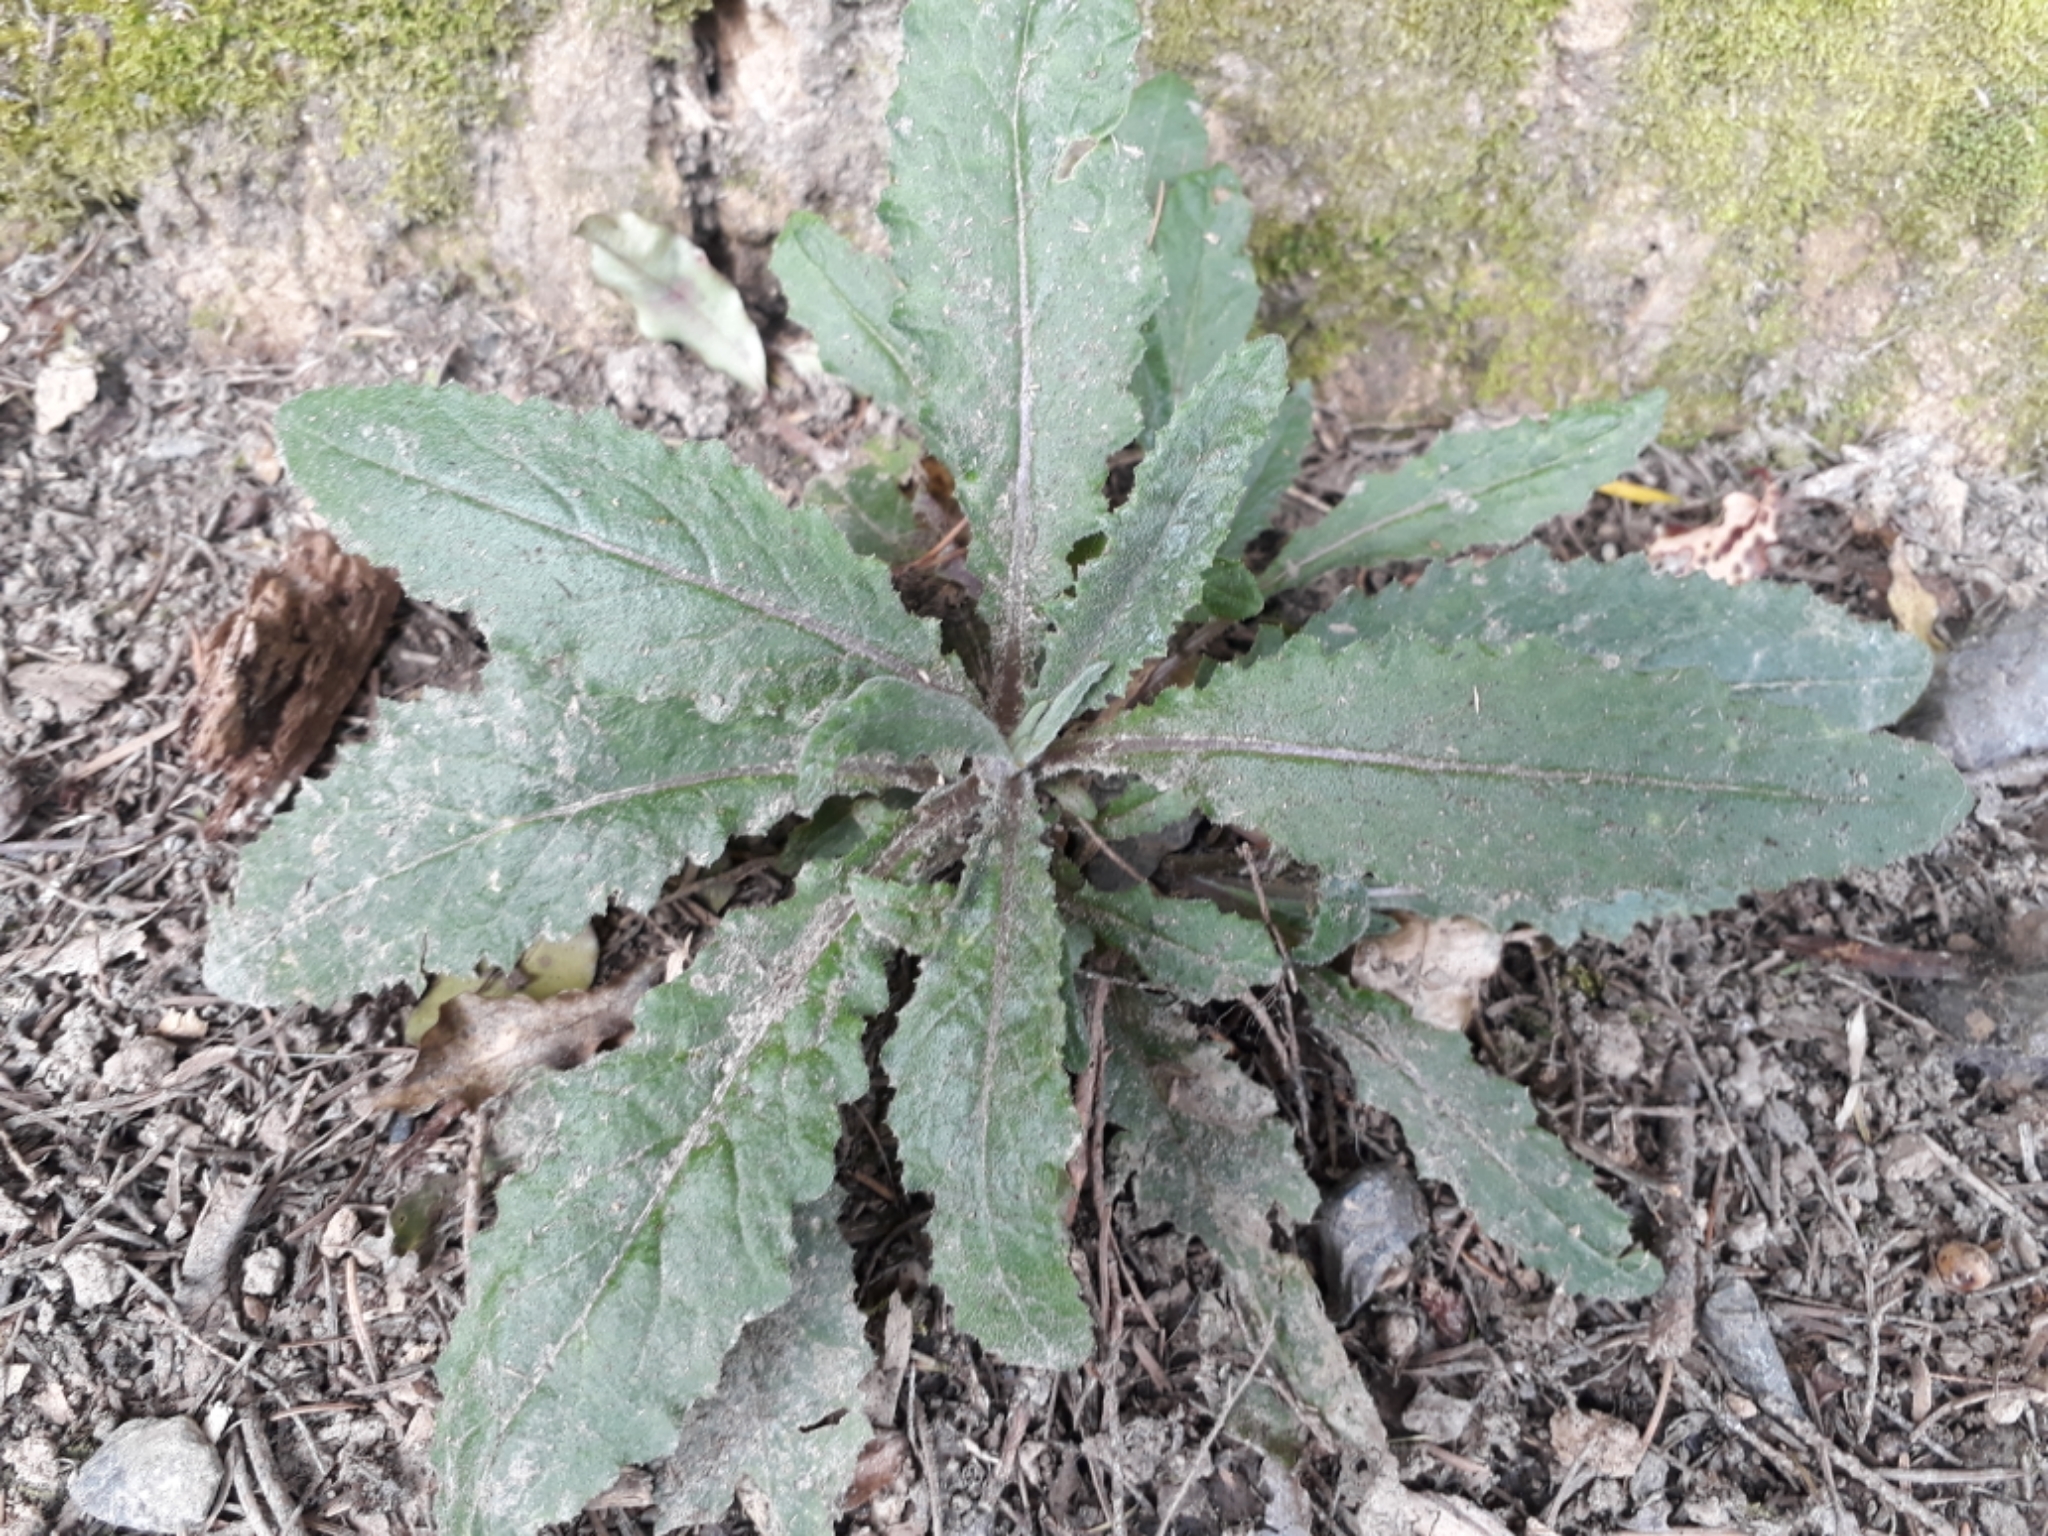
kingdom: Plantae
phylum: Tracheophyta
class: Magnoliopsida
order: Asterales
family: Asteraceae
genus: Senecio
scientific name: Senecio minimus
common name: Toothed fireweed
